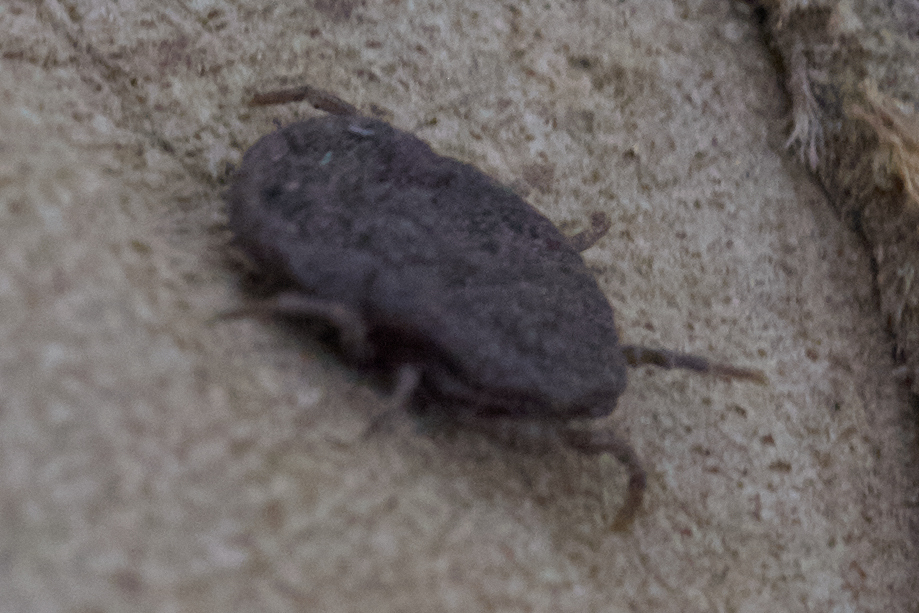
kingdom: Animalia
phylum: Arthropoda
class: Arachnida
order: Ixodida
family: Argasidae
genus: Ornithodoros
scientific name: Ornithodoros coriaceus
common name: Pajahuello tick
